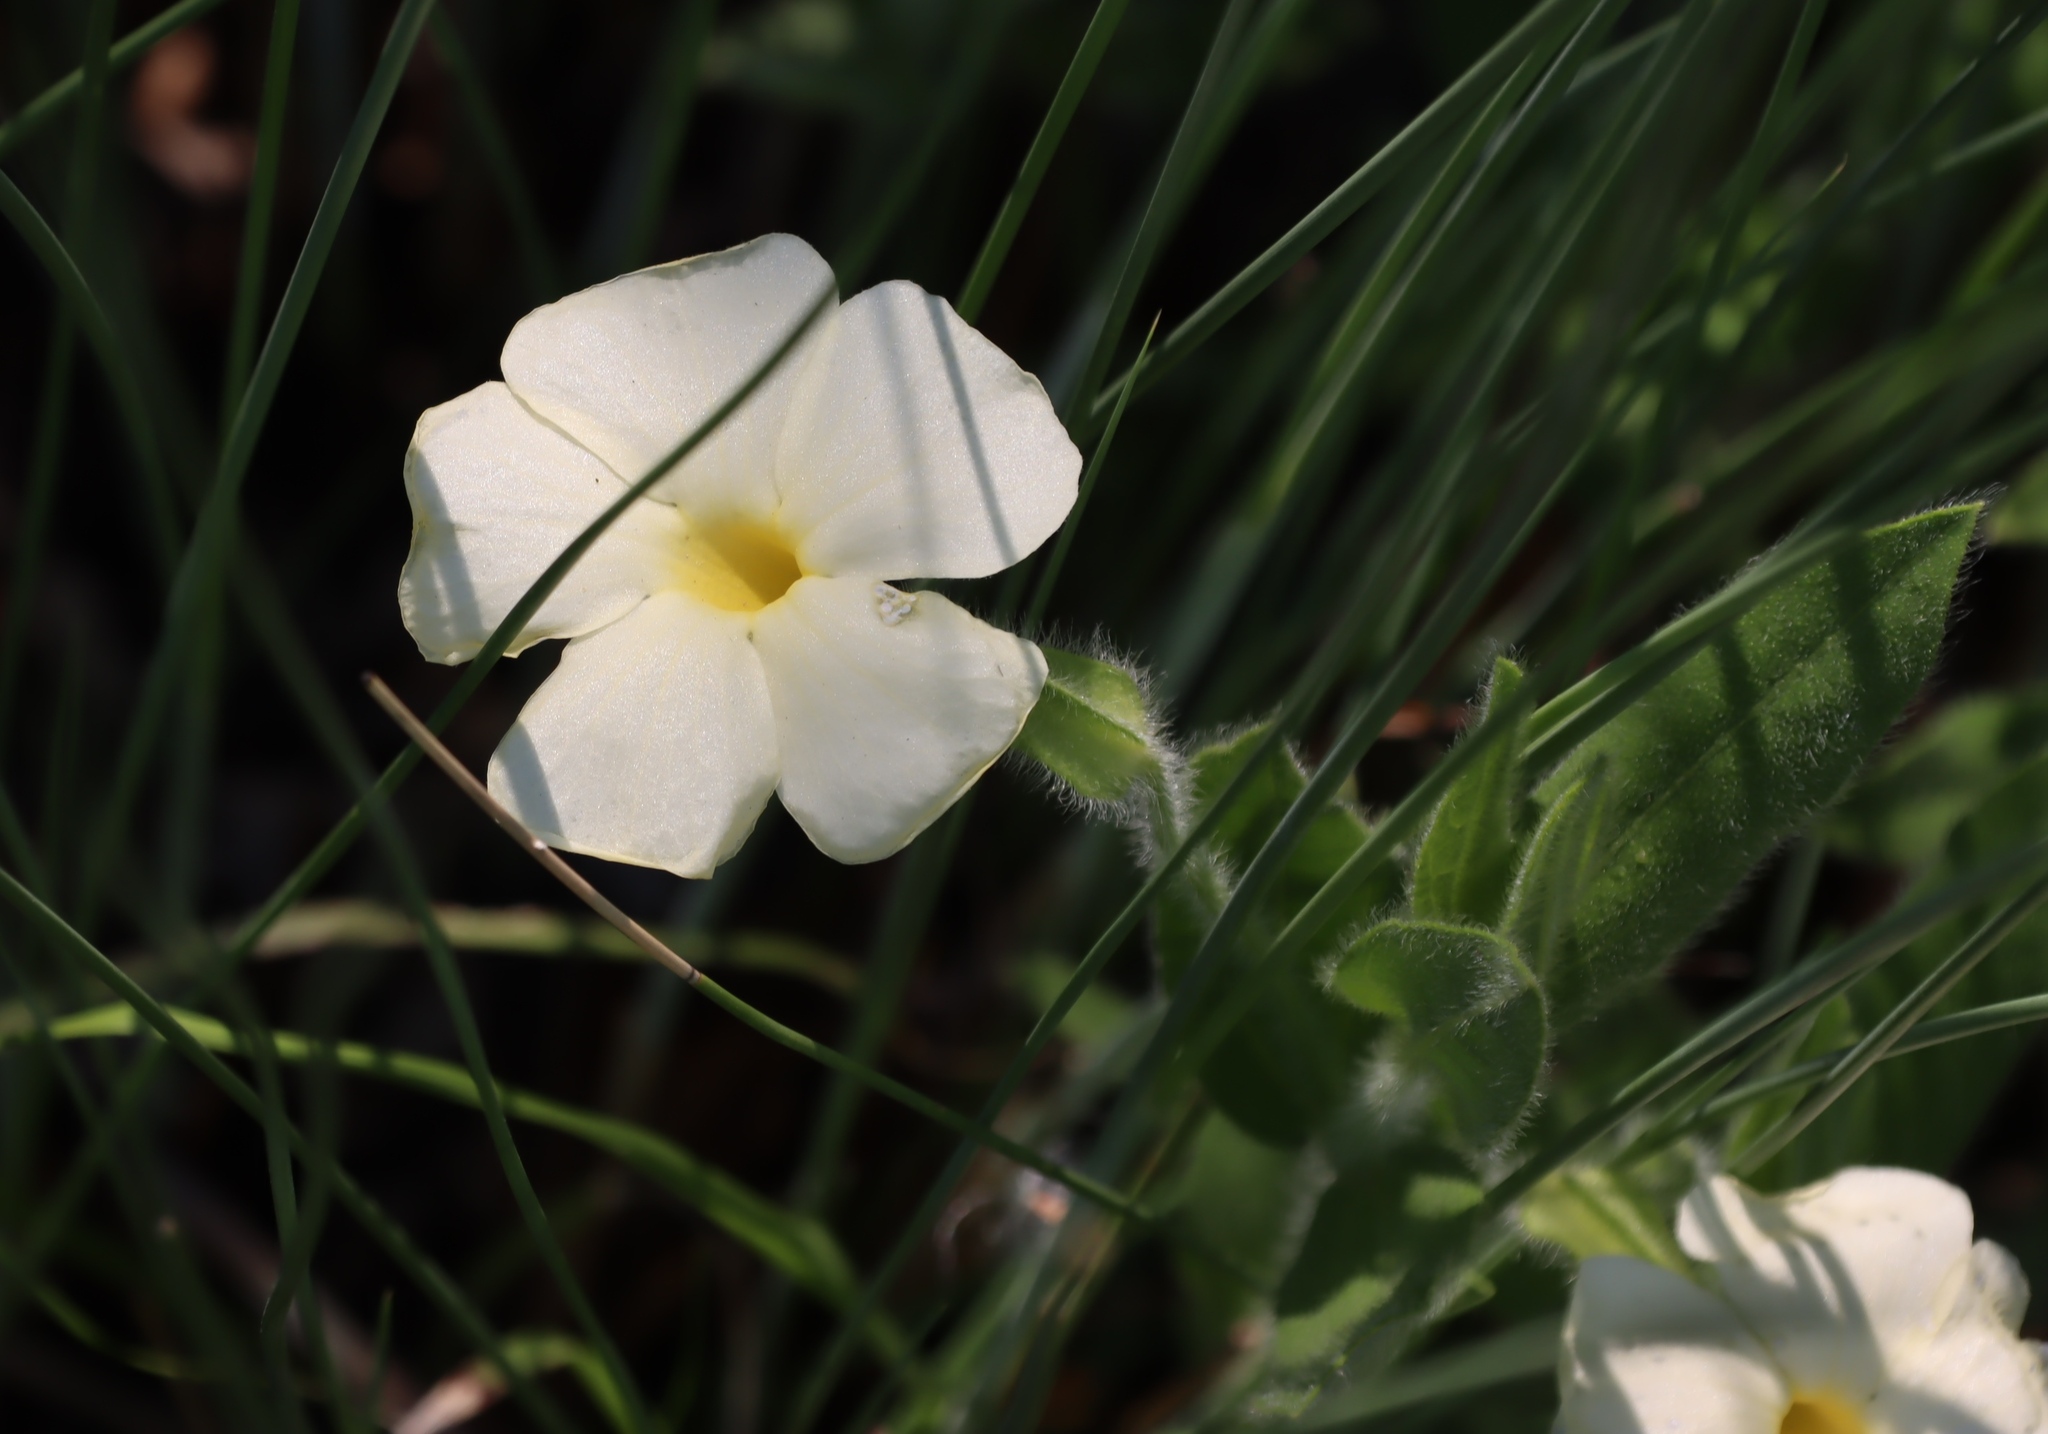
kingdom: Plantae
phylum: Tracheophyta
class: Magnoliopsida
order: Lamiales
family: Acanthaceae
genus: Thunbergia
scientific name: Thunbergia atriplicifolia
